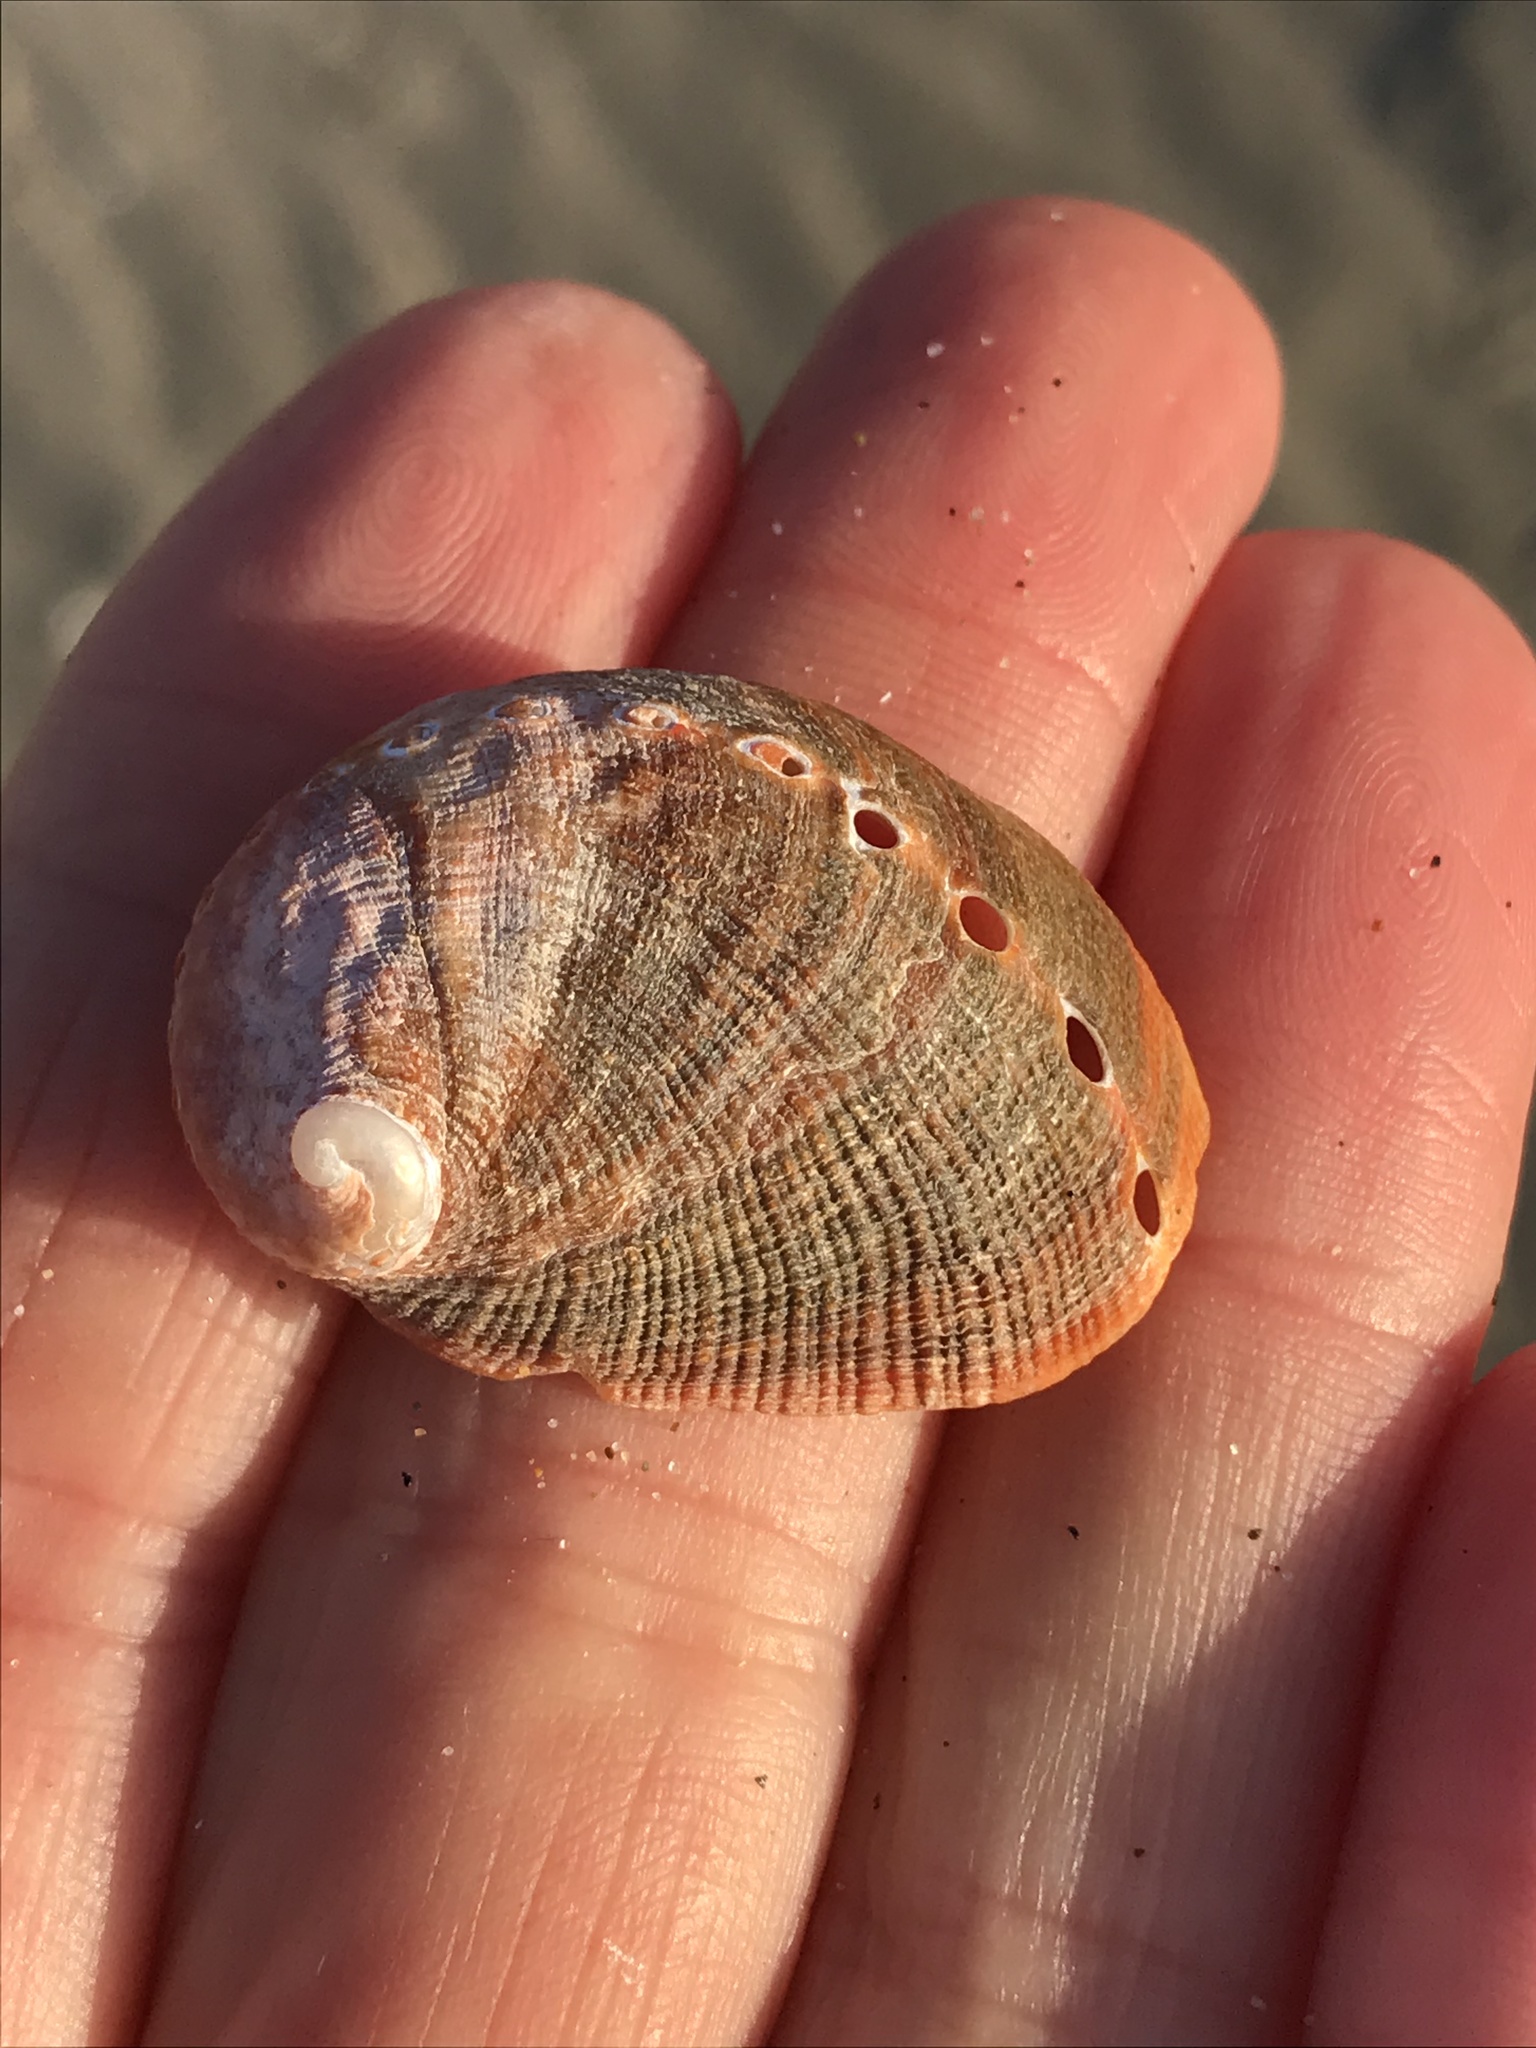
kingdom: Animalia
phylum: Mollusca
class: Gastropoda
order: Lepetellida
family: Haliotidae
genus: Haliotis
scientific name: Haliotis rufescens
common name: Red abalone
